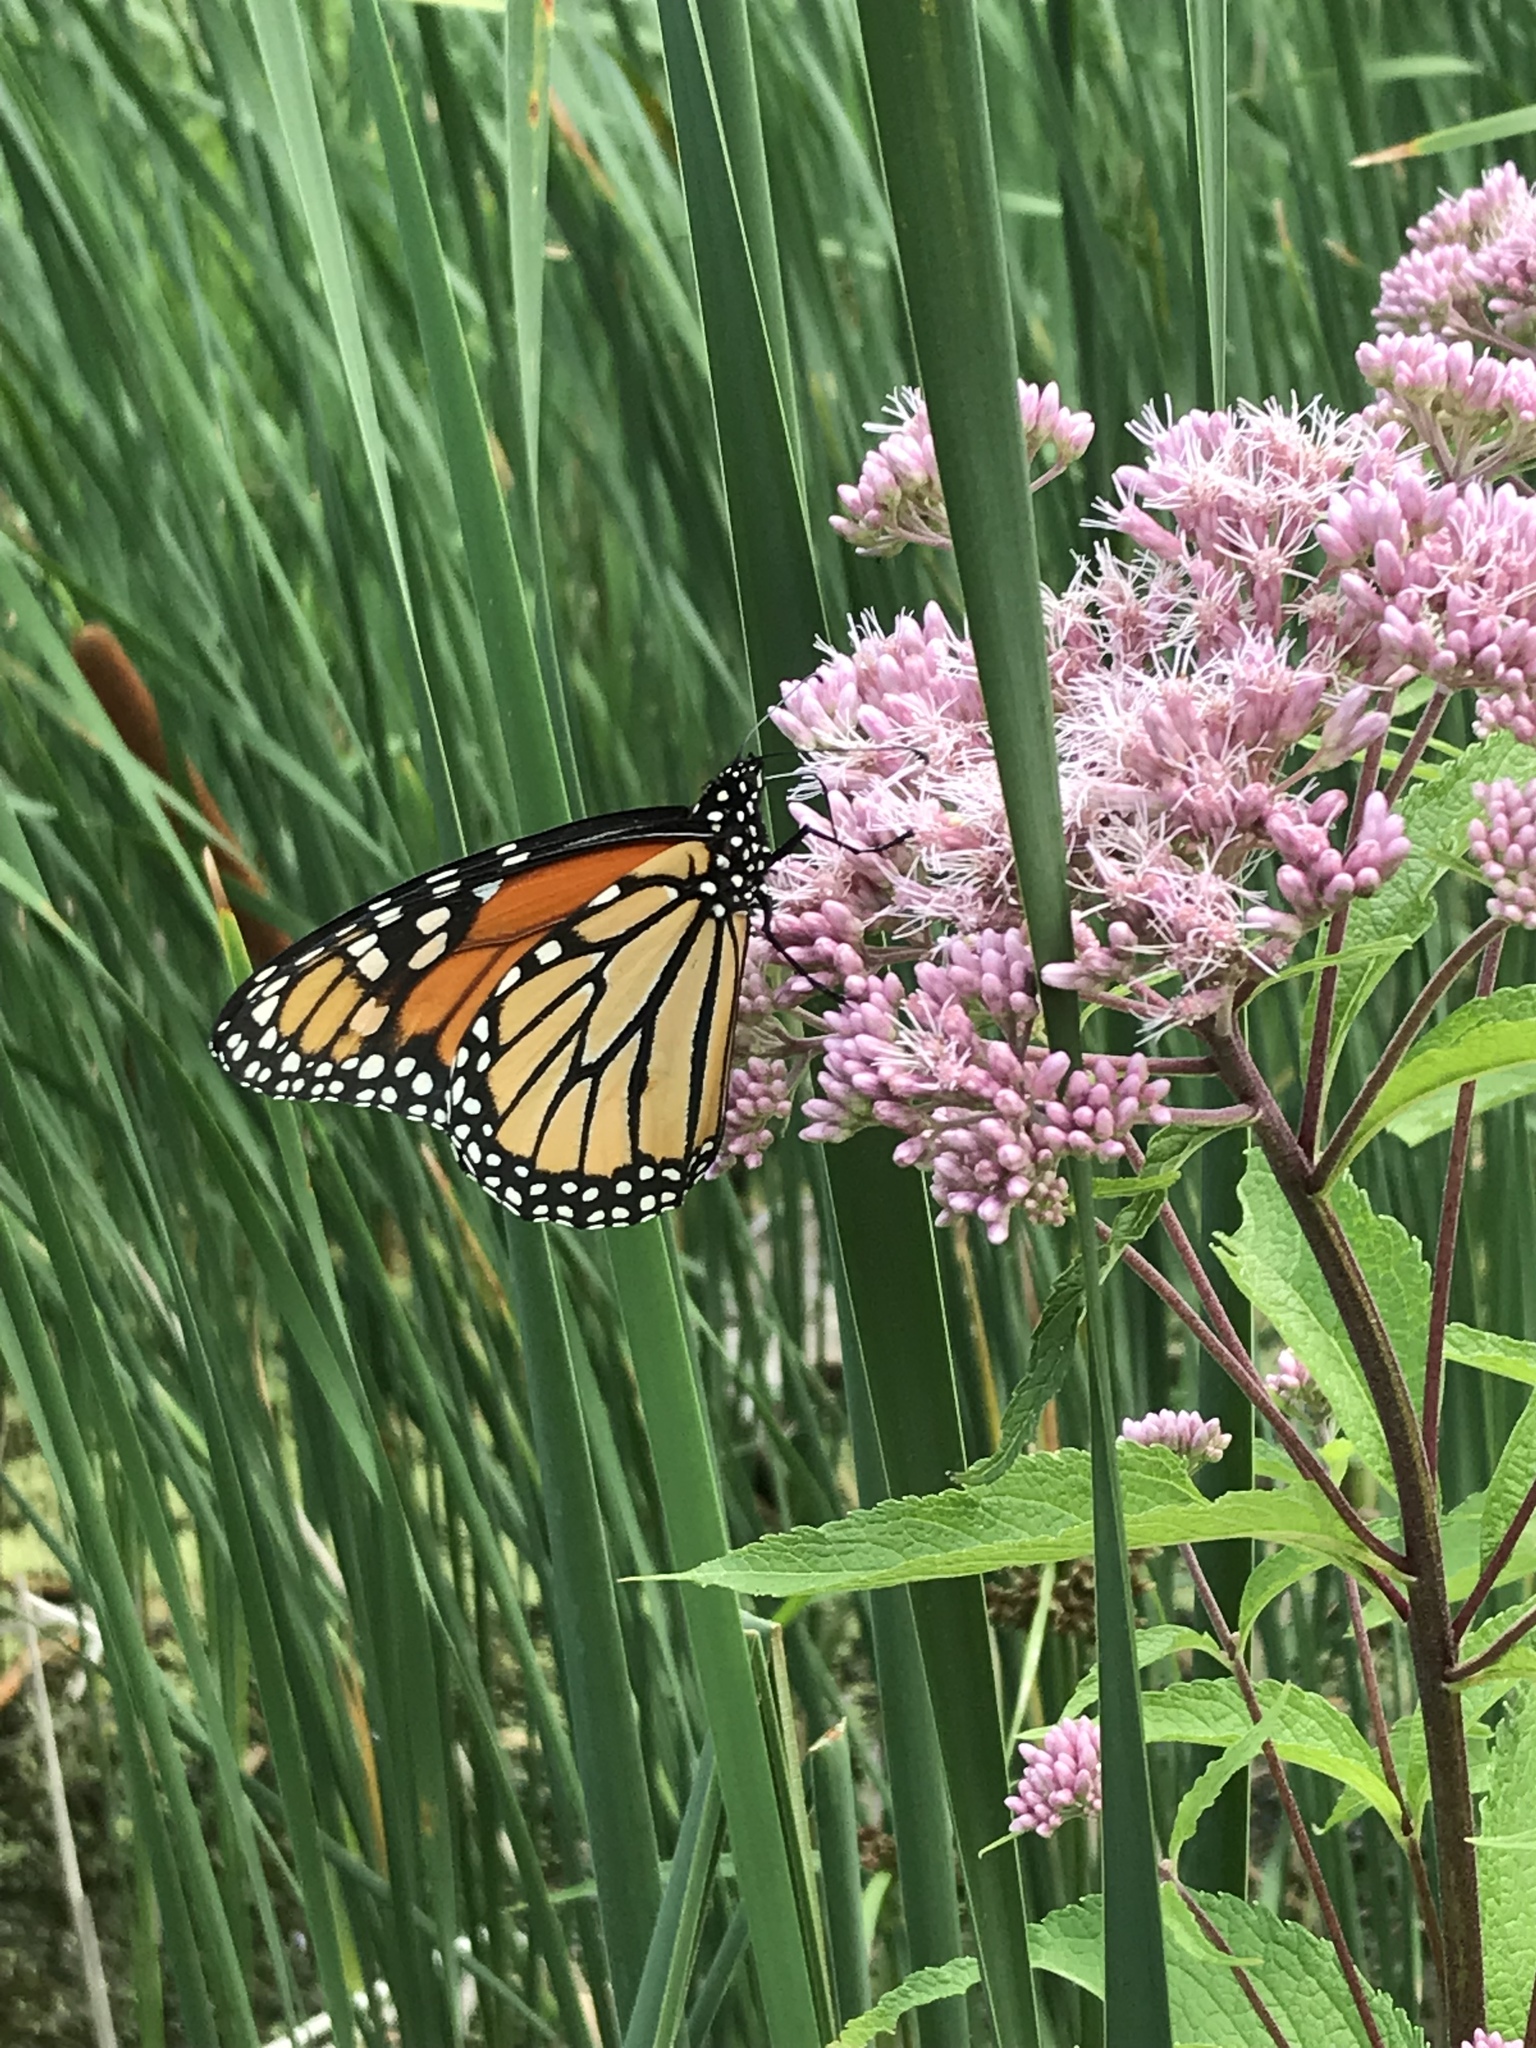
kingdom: Animalia
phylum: Arthropoda
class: Insecta
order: Lepidoptera
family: Nymphalidae
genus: Danaus
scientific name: Danaus plexippus
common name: Monarch
